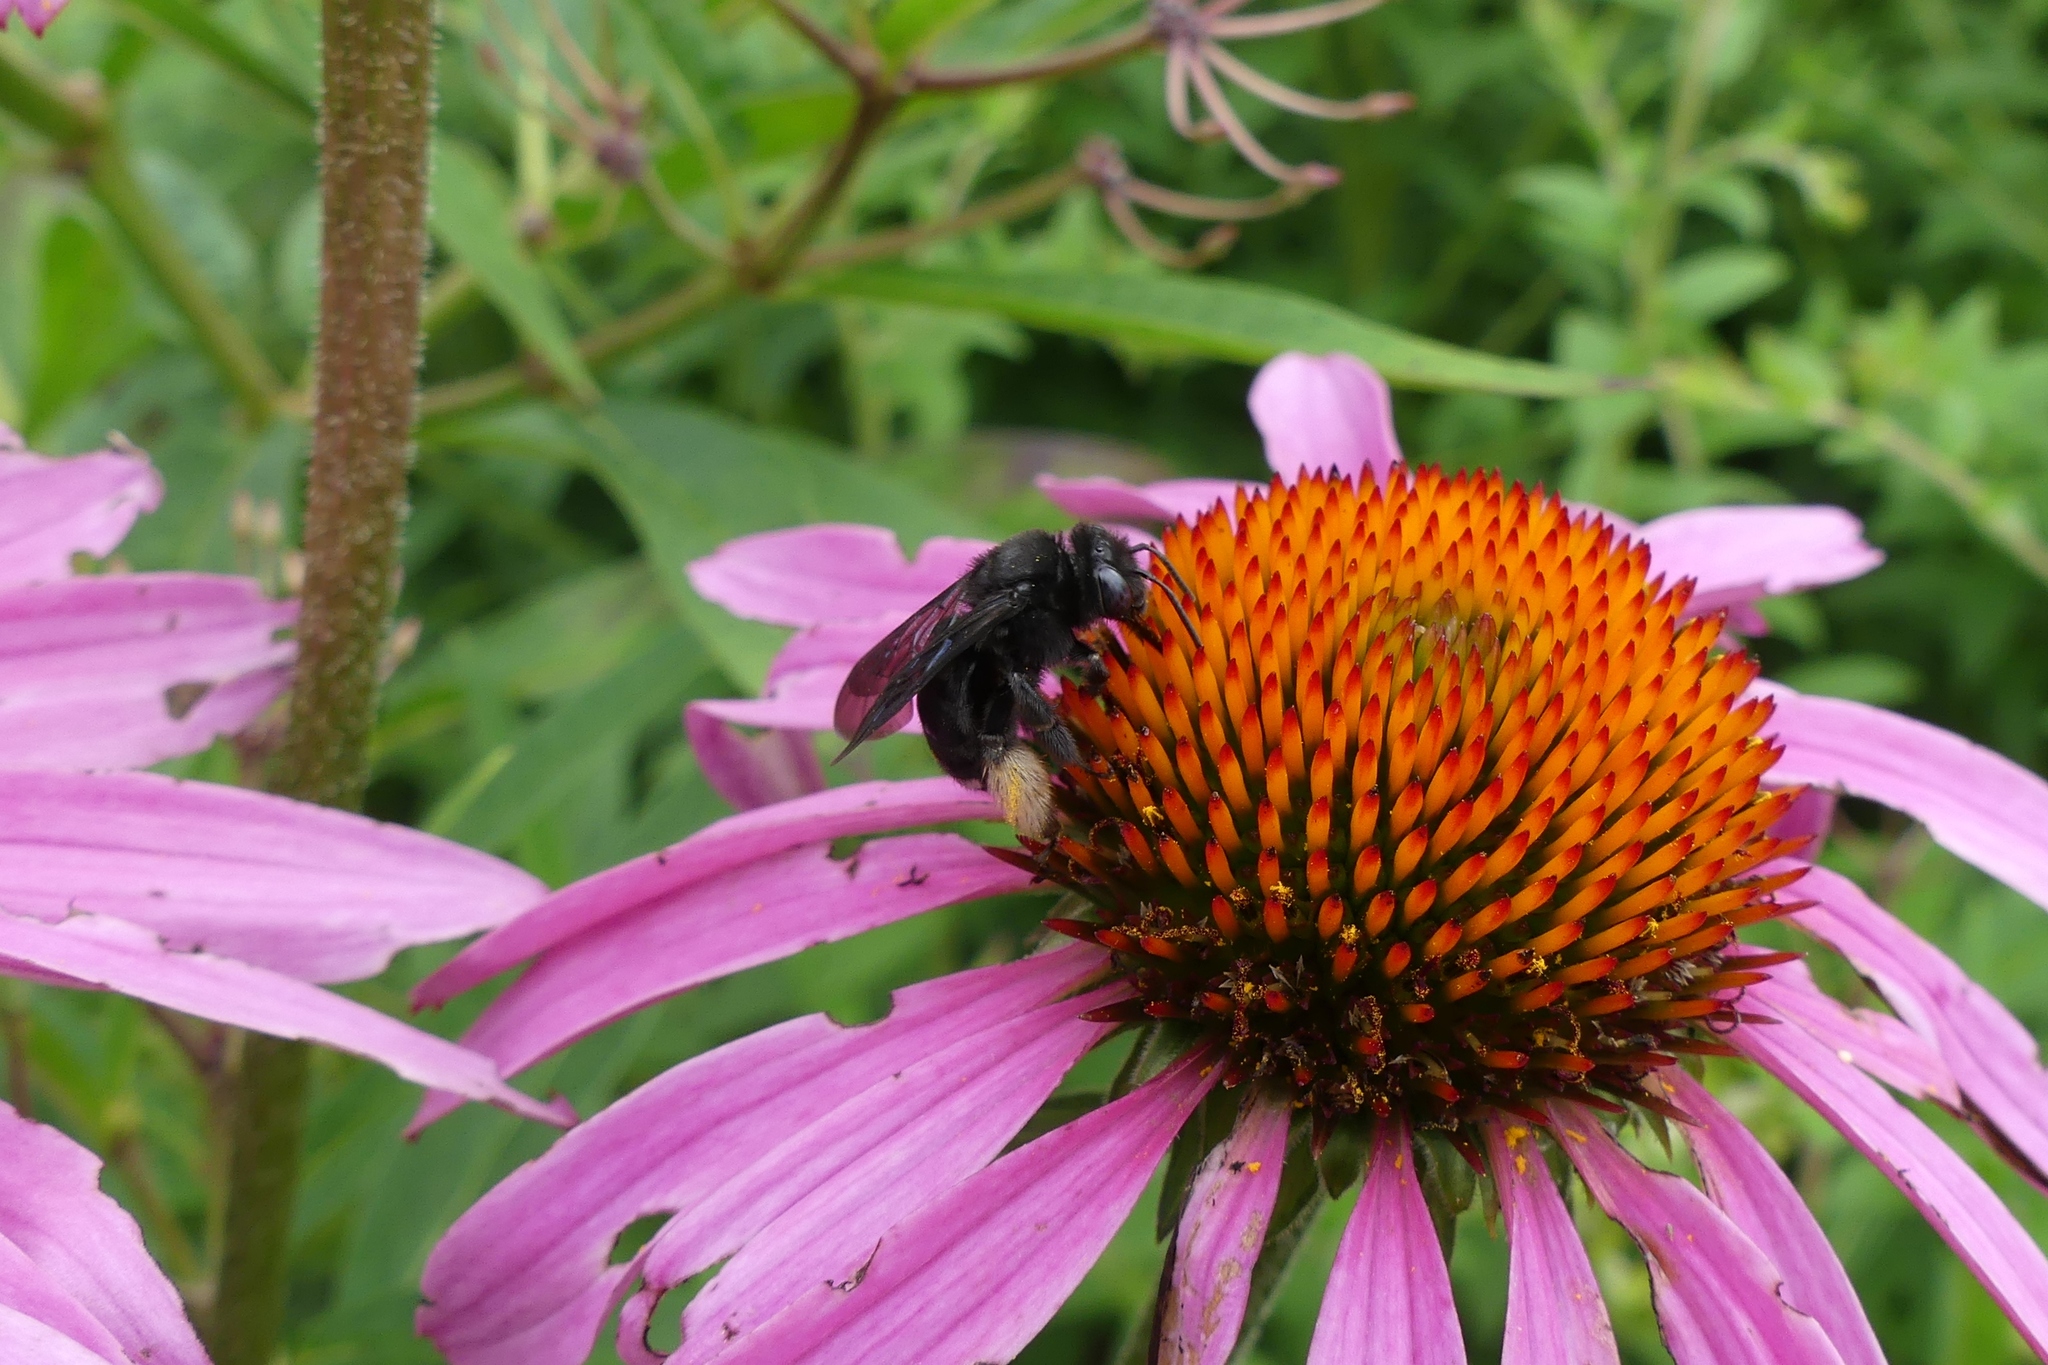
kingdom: Animalia
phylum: Arthropoda
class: Insecta
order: Hymenoptera
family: Apidae
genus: Melissodes
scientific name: Melissodes bimaculatus
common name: Two-spotted long-horned bee
